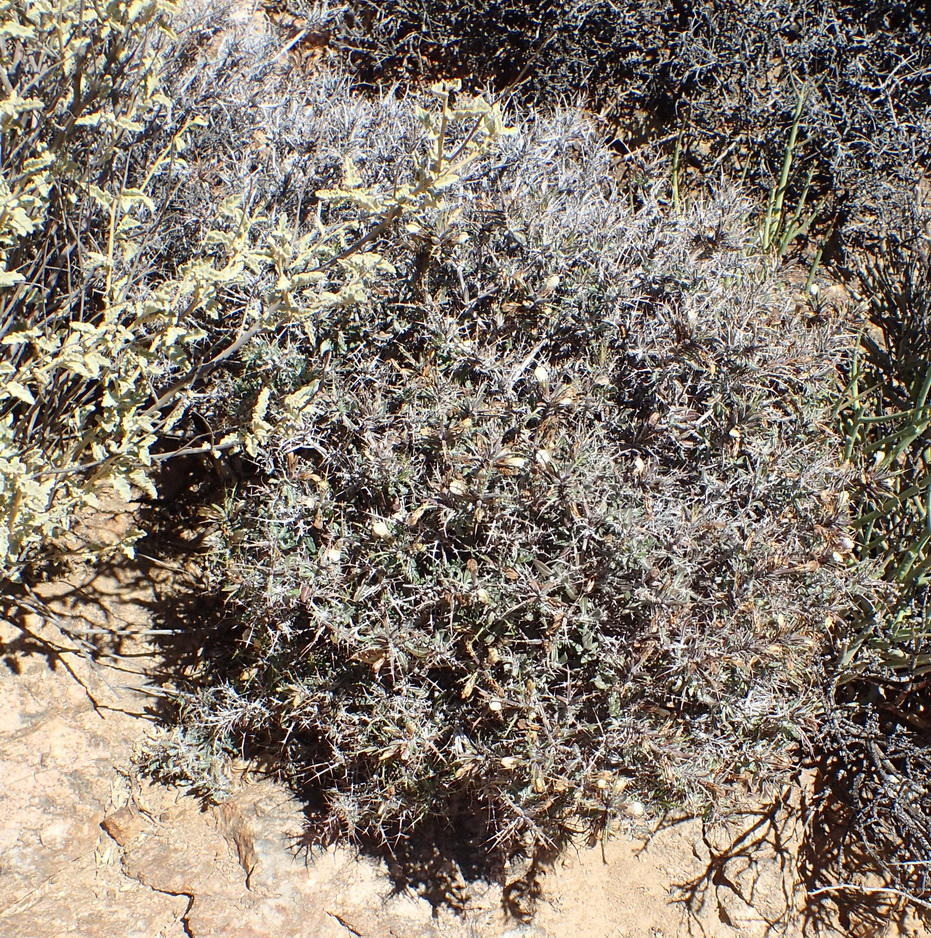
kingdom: Plantae
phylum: Tracheophyta
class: Magnoliopsida
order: Lamiales
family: Acanthaceae
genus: Blepharis
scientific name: Blepharis macra
